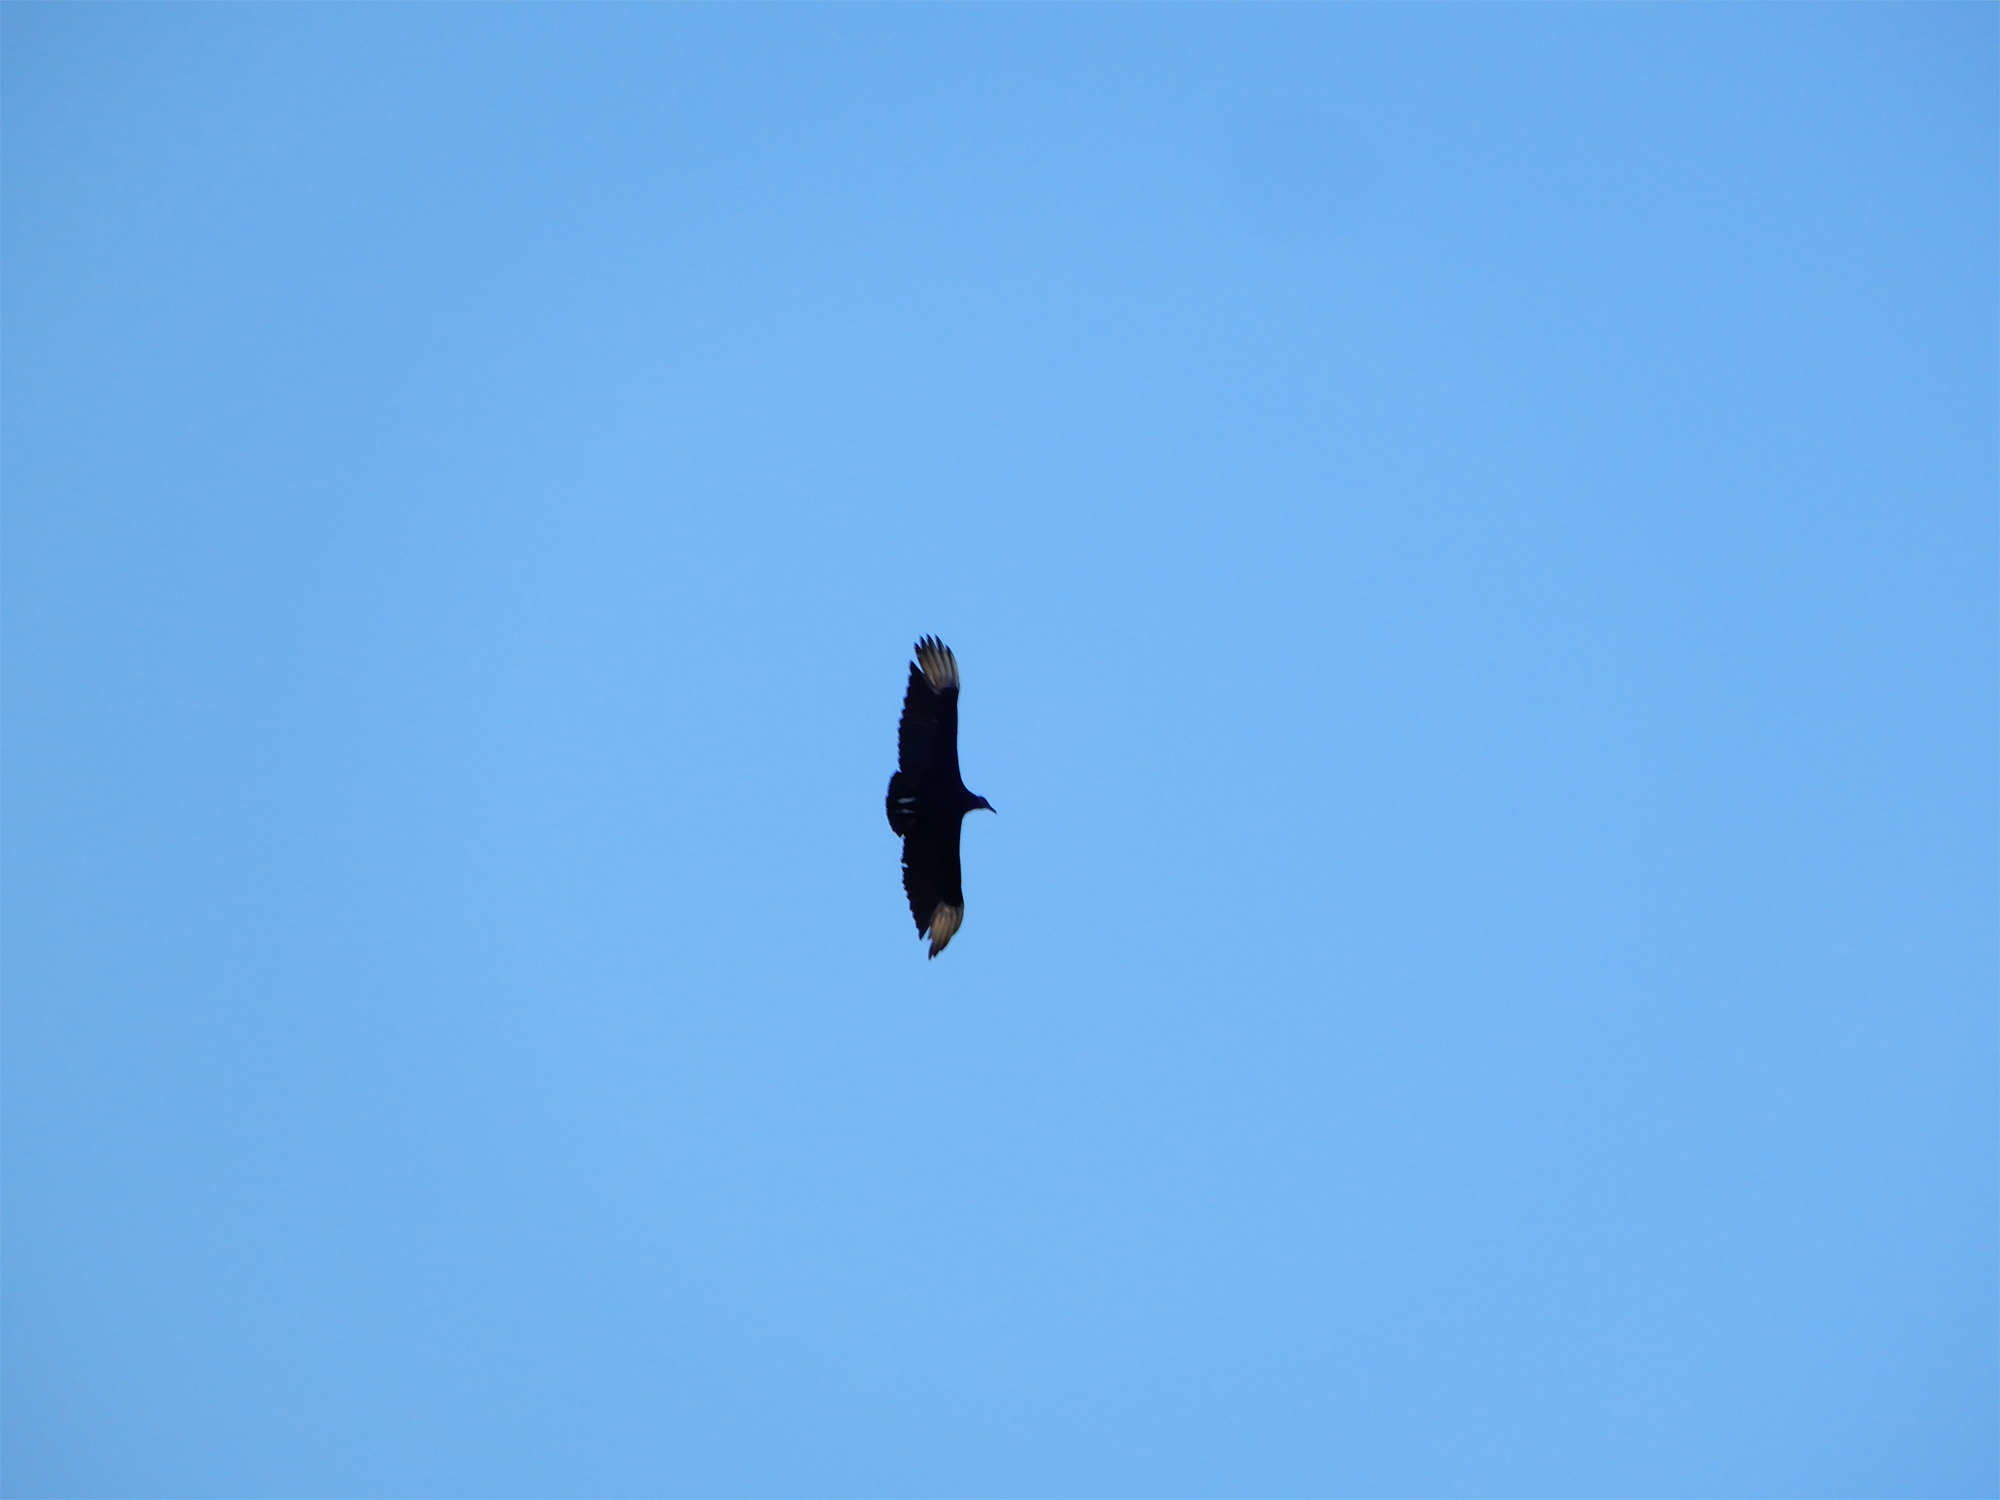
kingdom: Animalia
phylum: Chordata
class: Aves
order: Accipitriformes
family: Cathartidae
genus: Coragyps
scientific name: Coragyps atratus
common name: Black vulture
